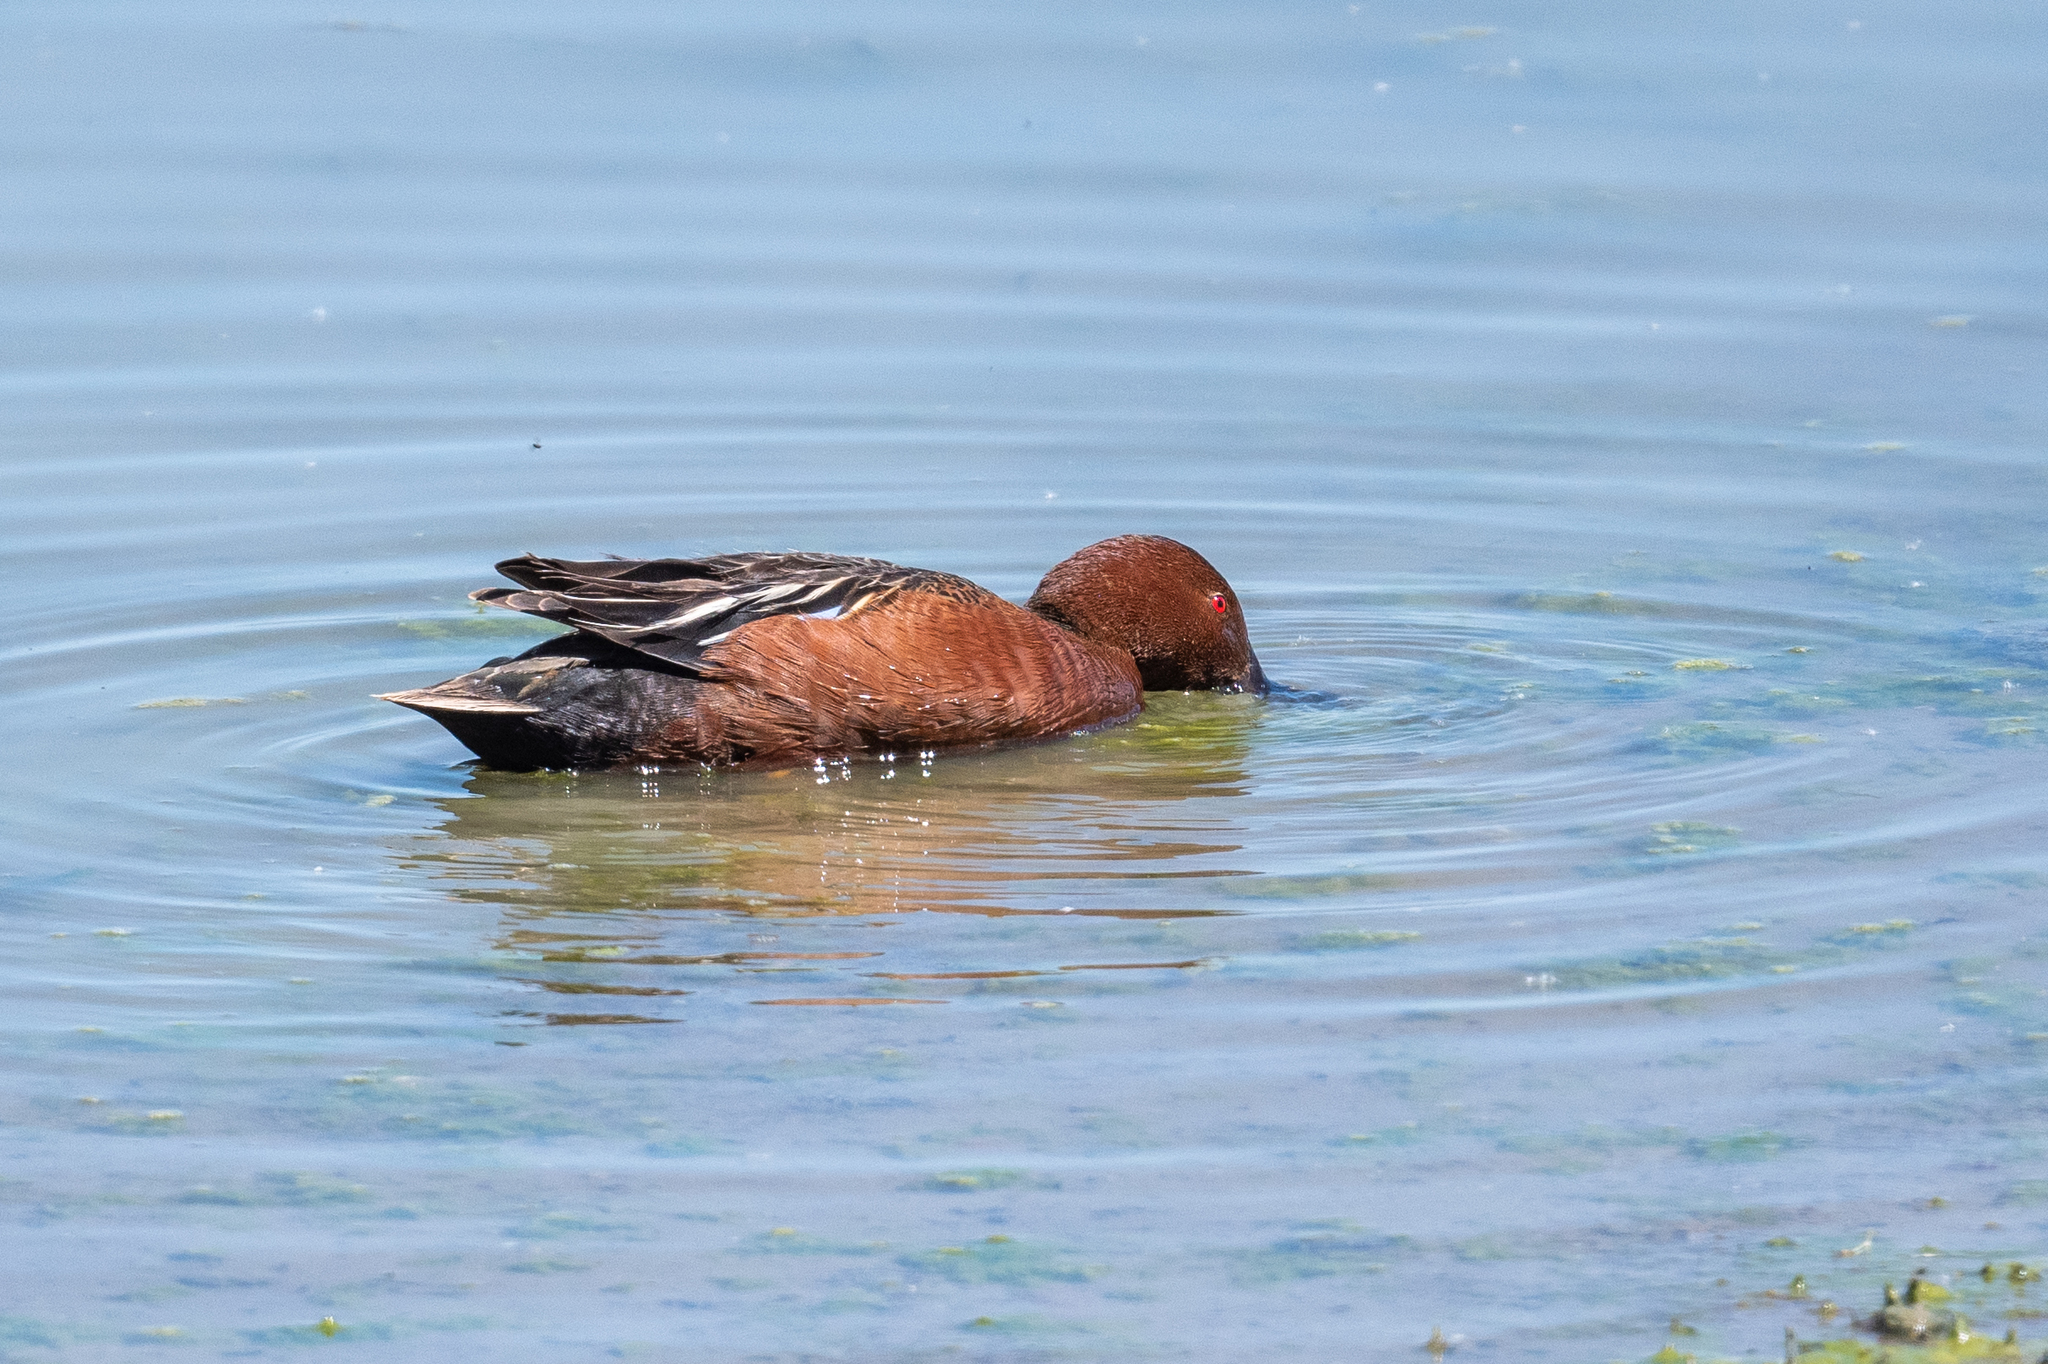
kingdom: Animalia
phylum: Chordata
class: Aves
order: Anseriformes
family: Anatidae
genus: Spatula
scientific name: Spatula cyanoptera
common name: Cinnamon teal
